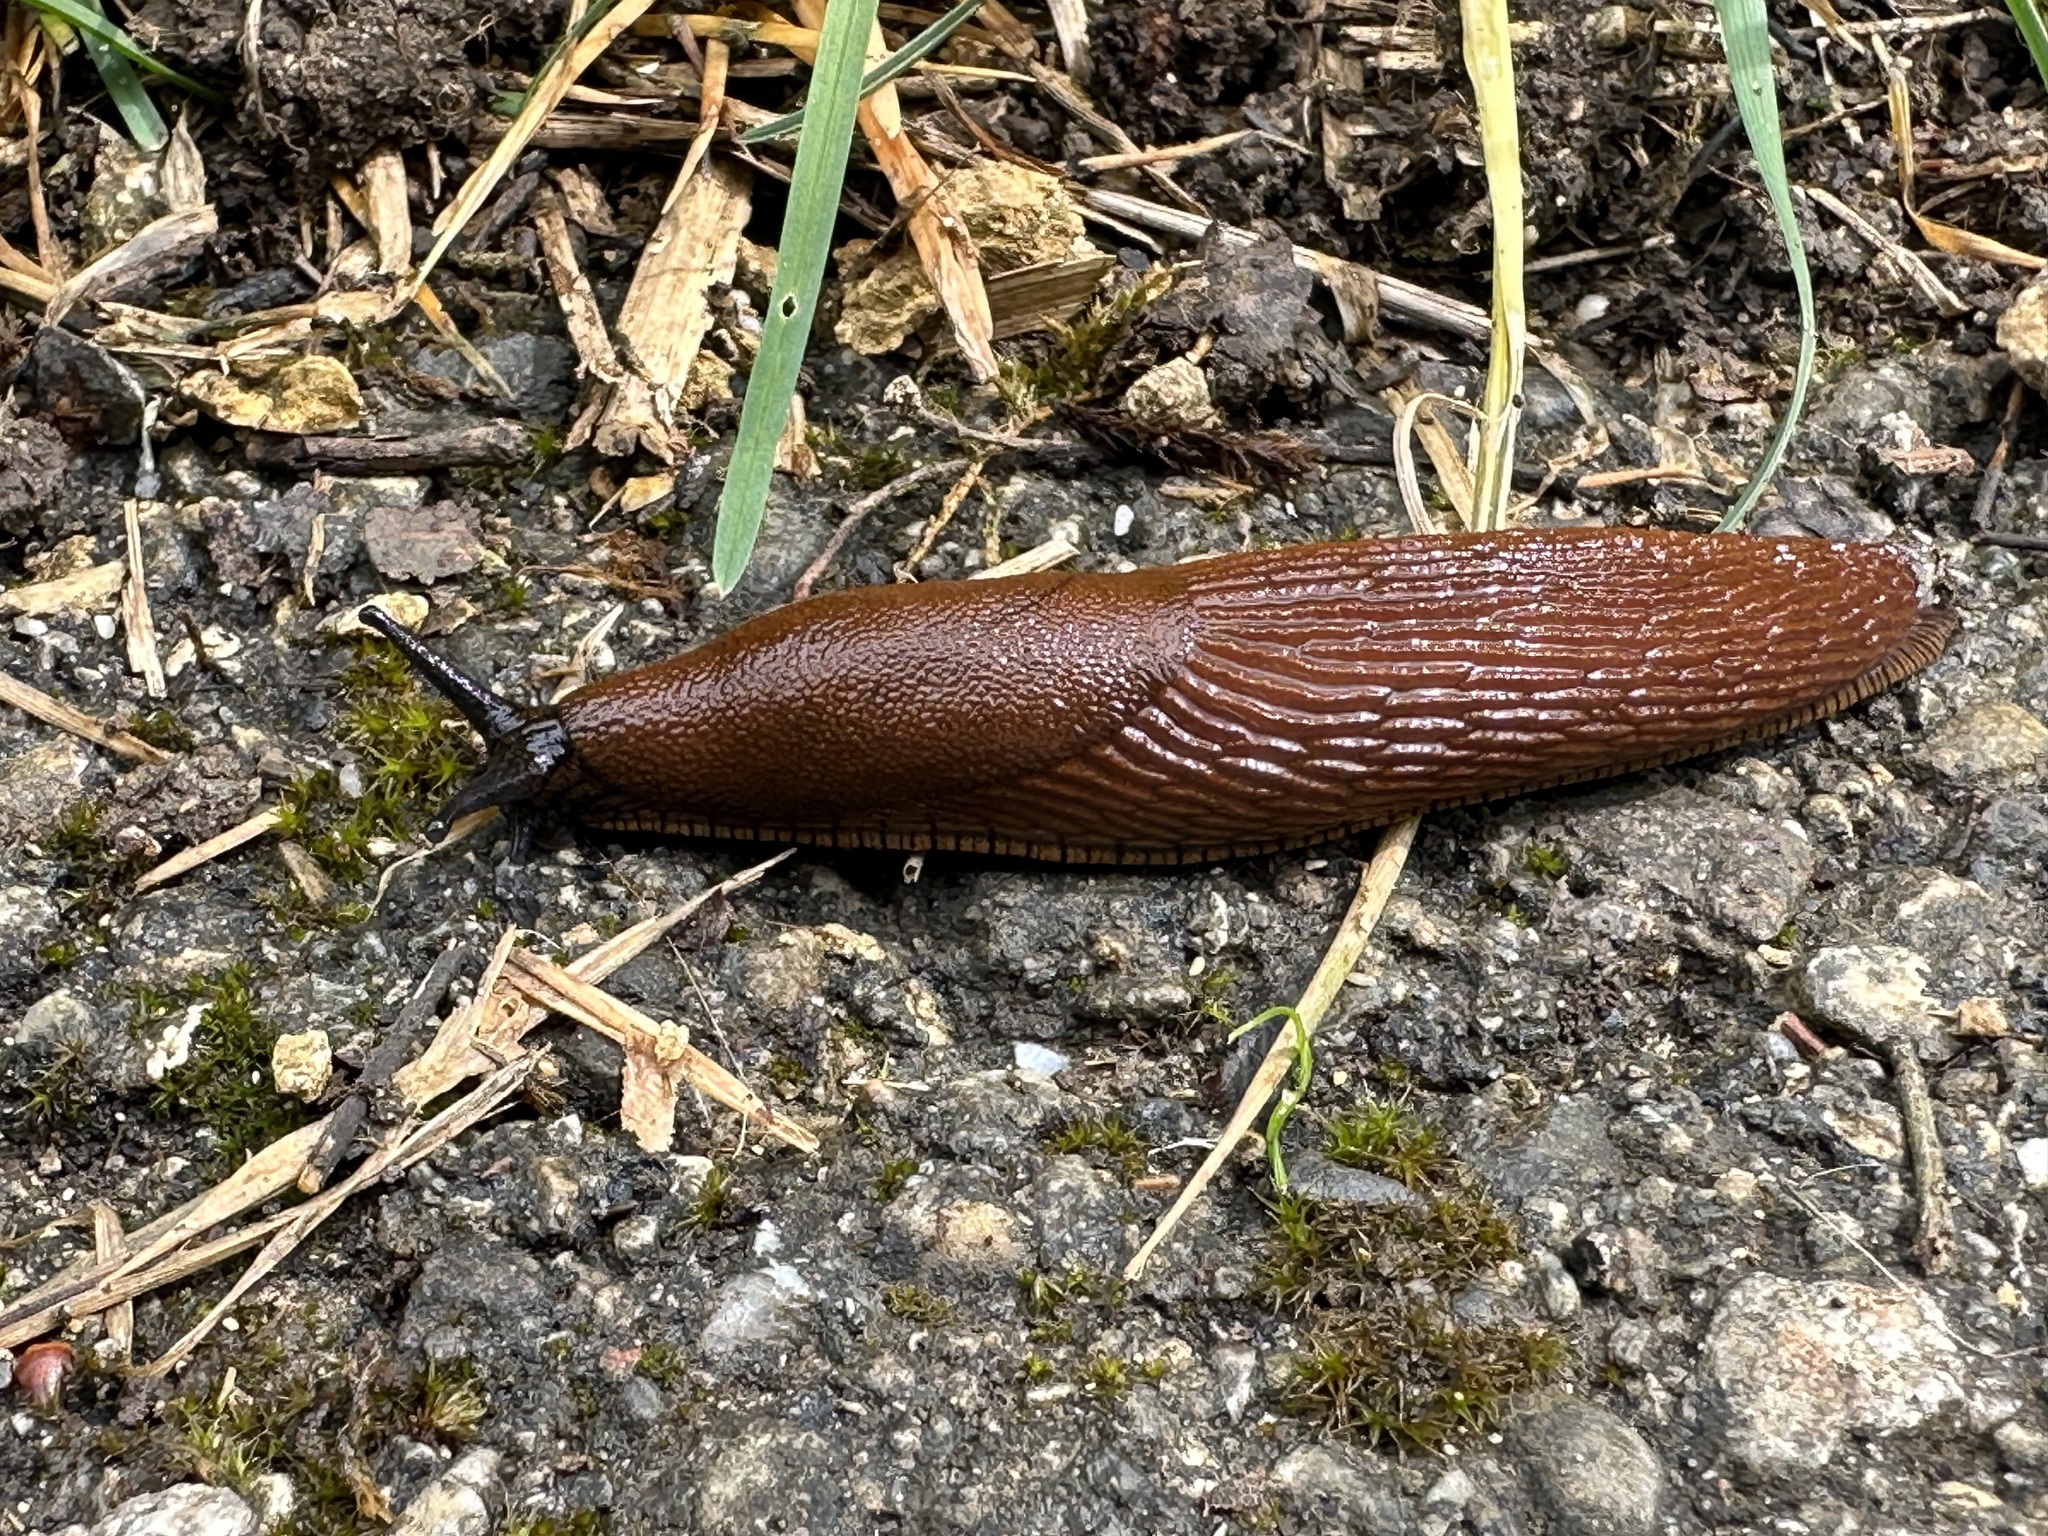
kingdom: Animalia
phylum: Mollusca
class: Gastropoda
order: Stylommatophora
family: Arionidae
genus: Arion
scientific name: Arion rufus
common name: Chocolate arion
